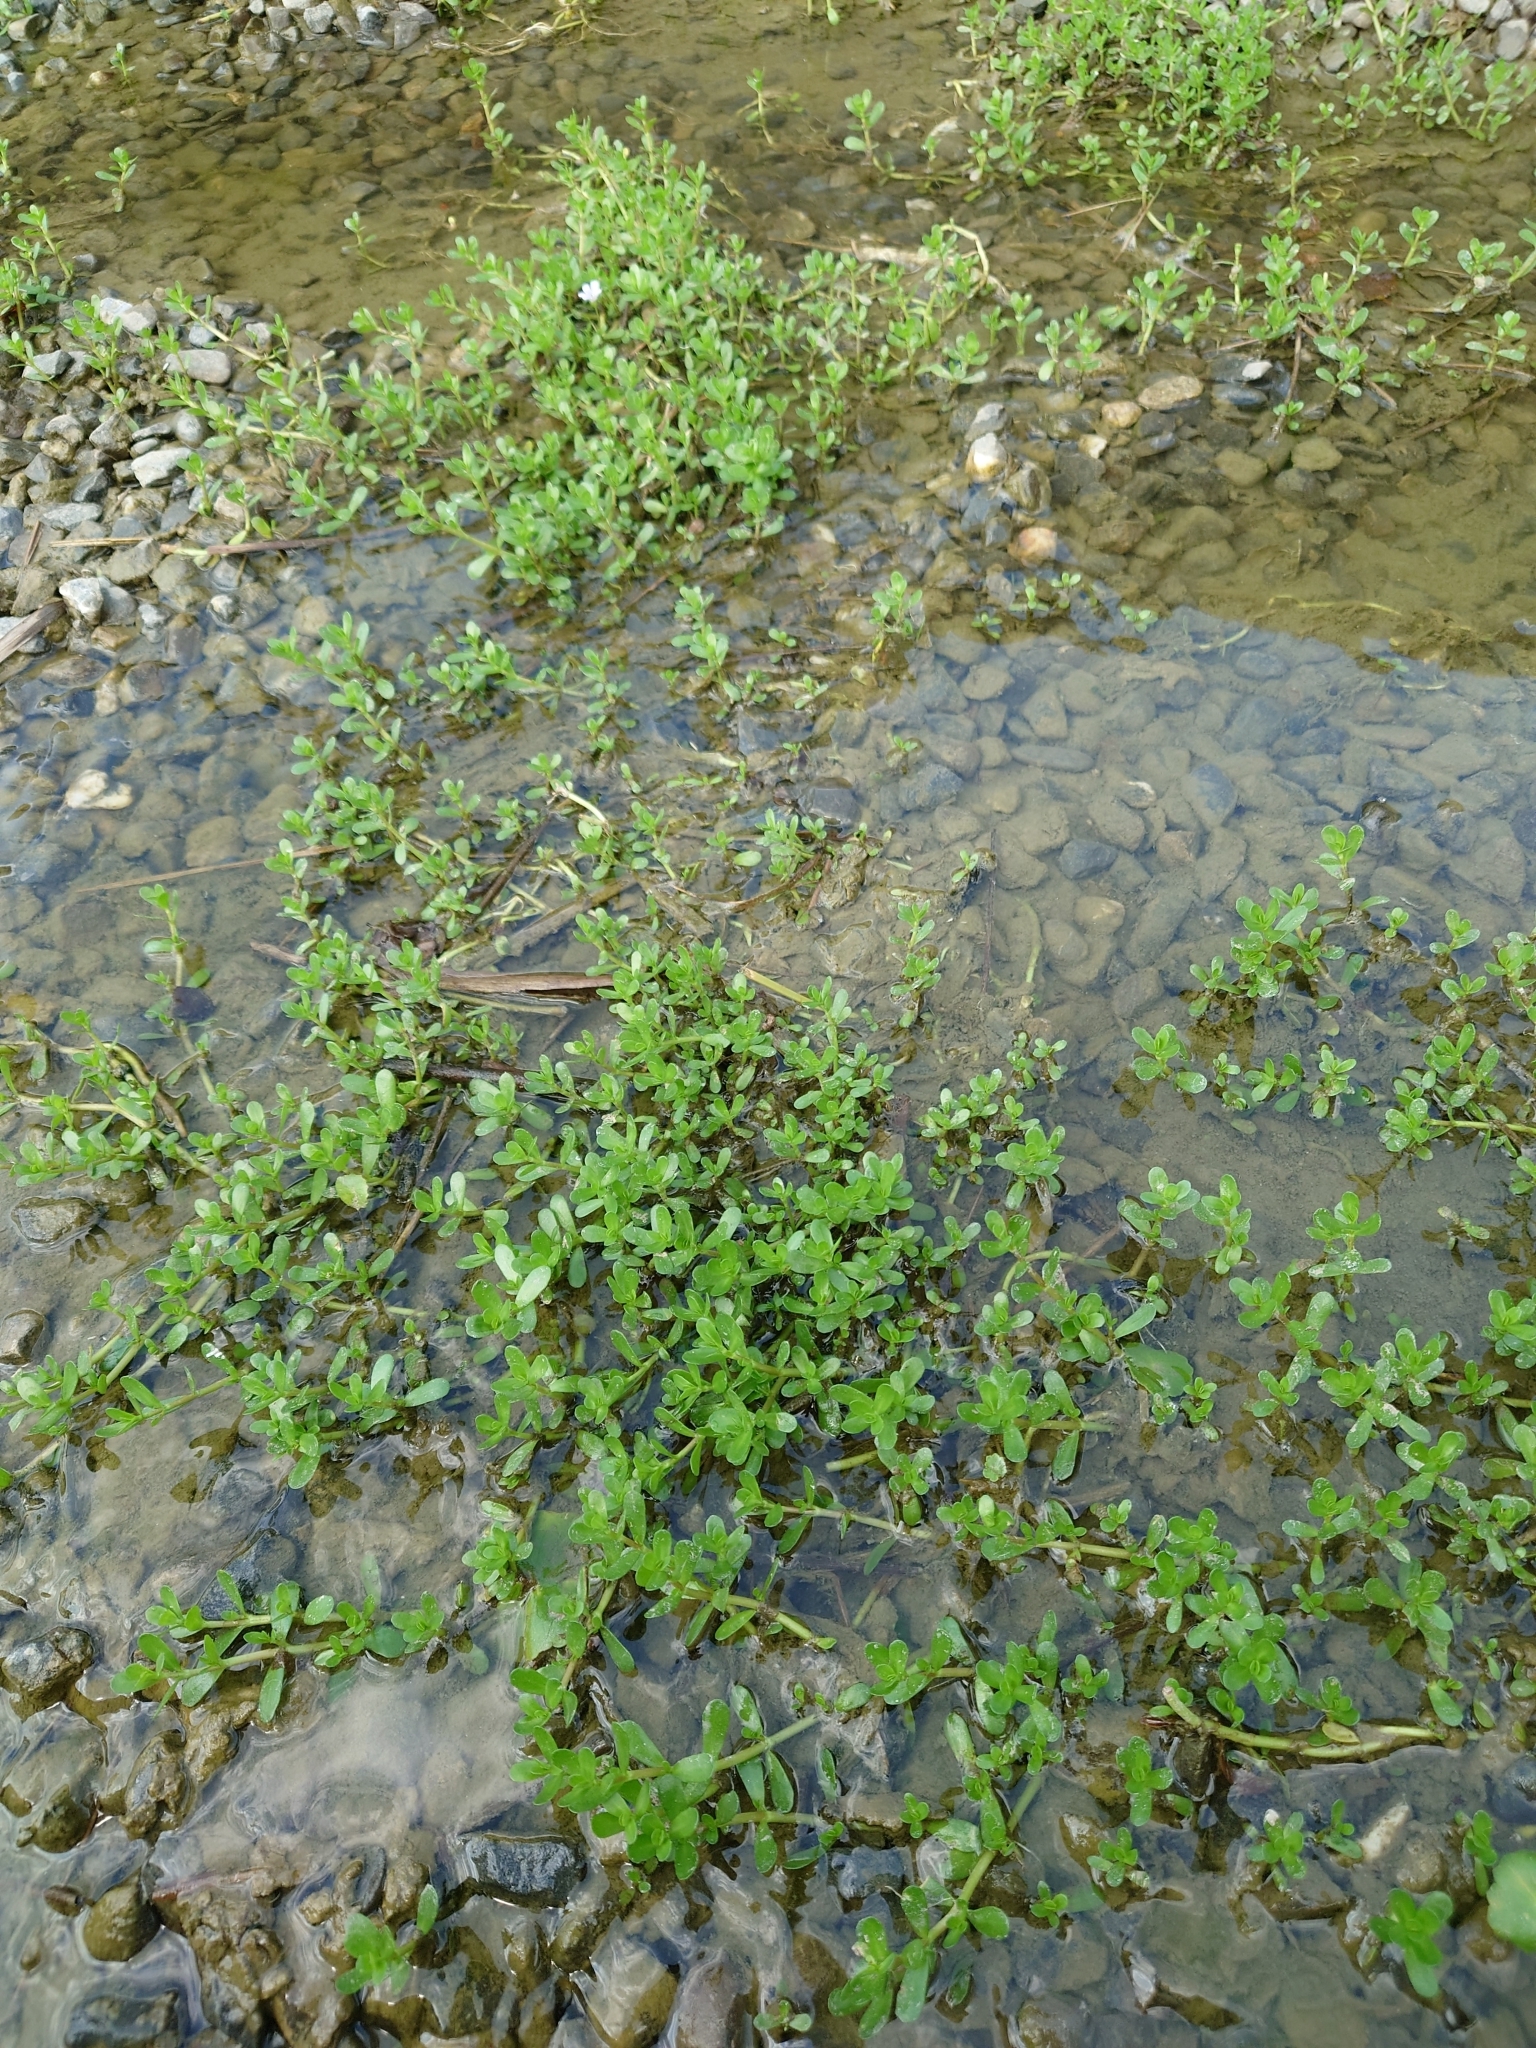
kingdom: Plantae
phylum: Tracheophyta
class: Magnoliopsida
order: Lamiales
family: Plantaginaceae
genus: Bacopa
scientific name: Bacopa monnieri
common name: Indian-pennywort
